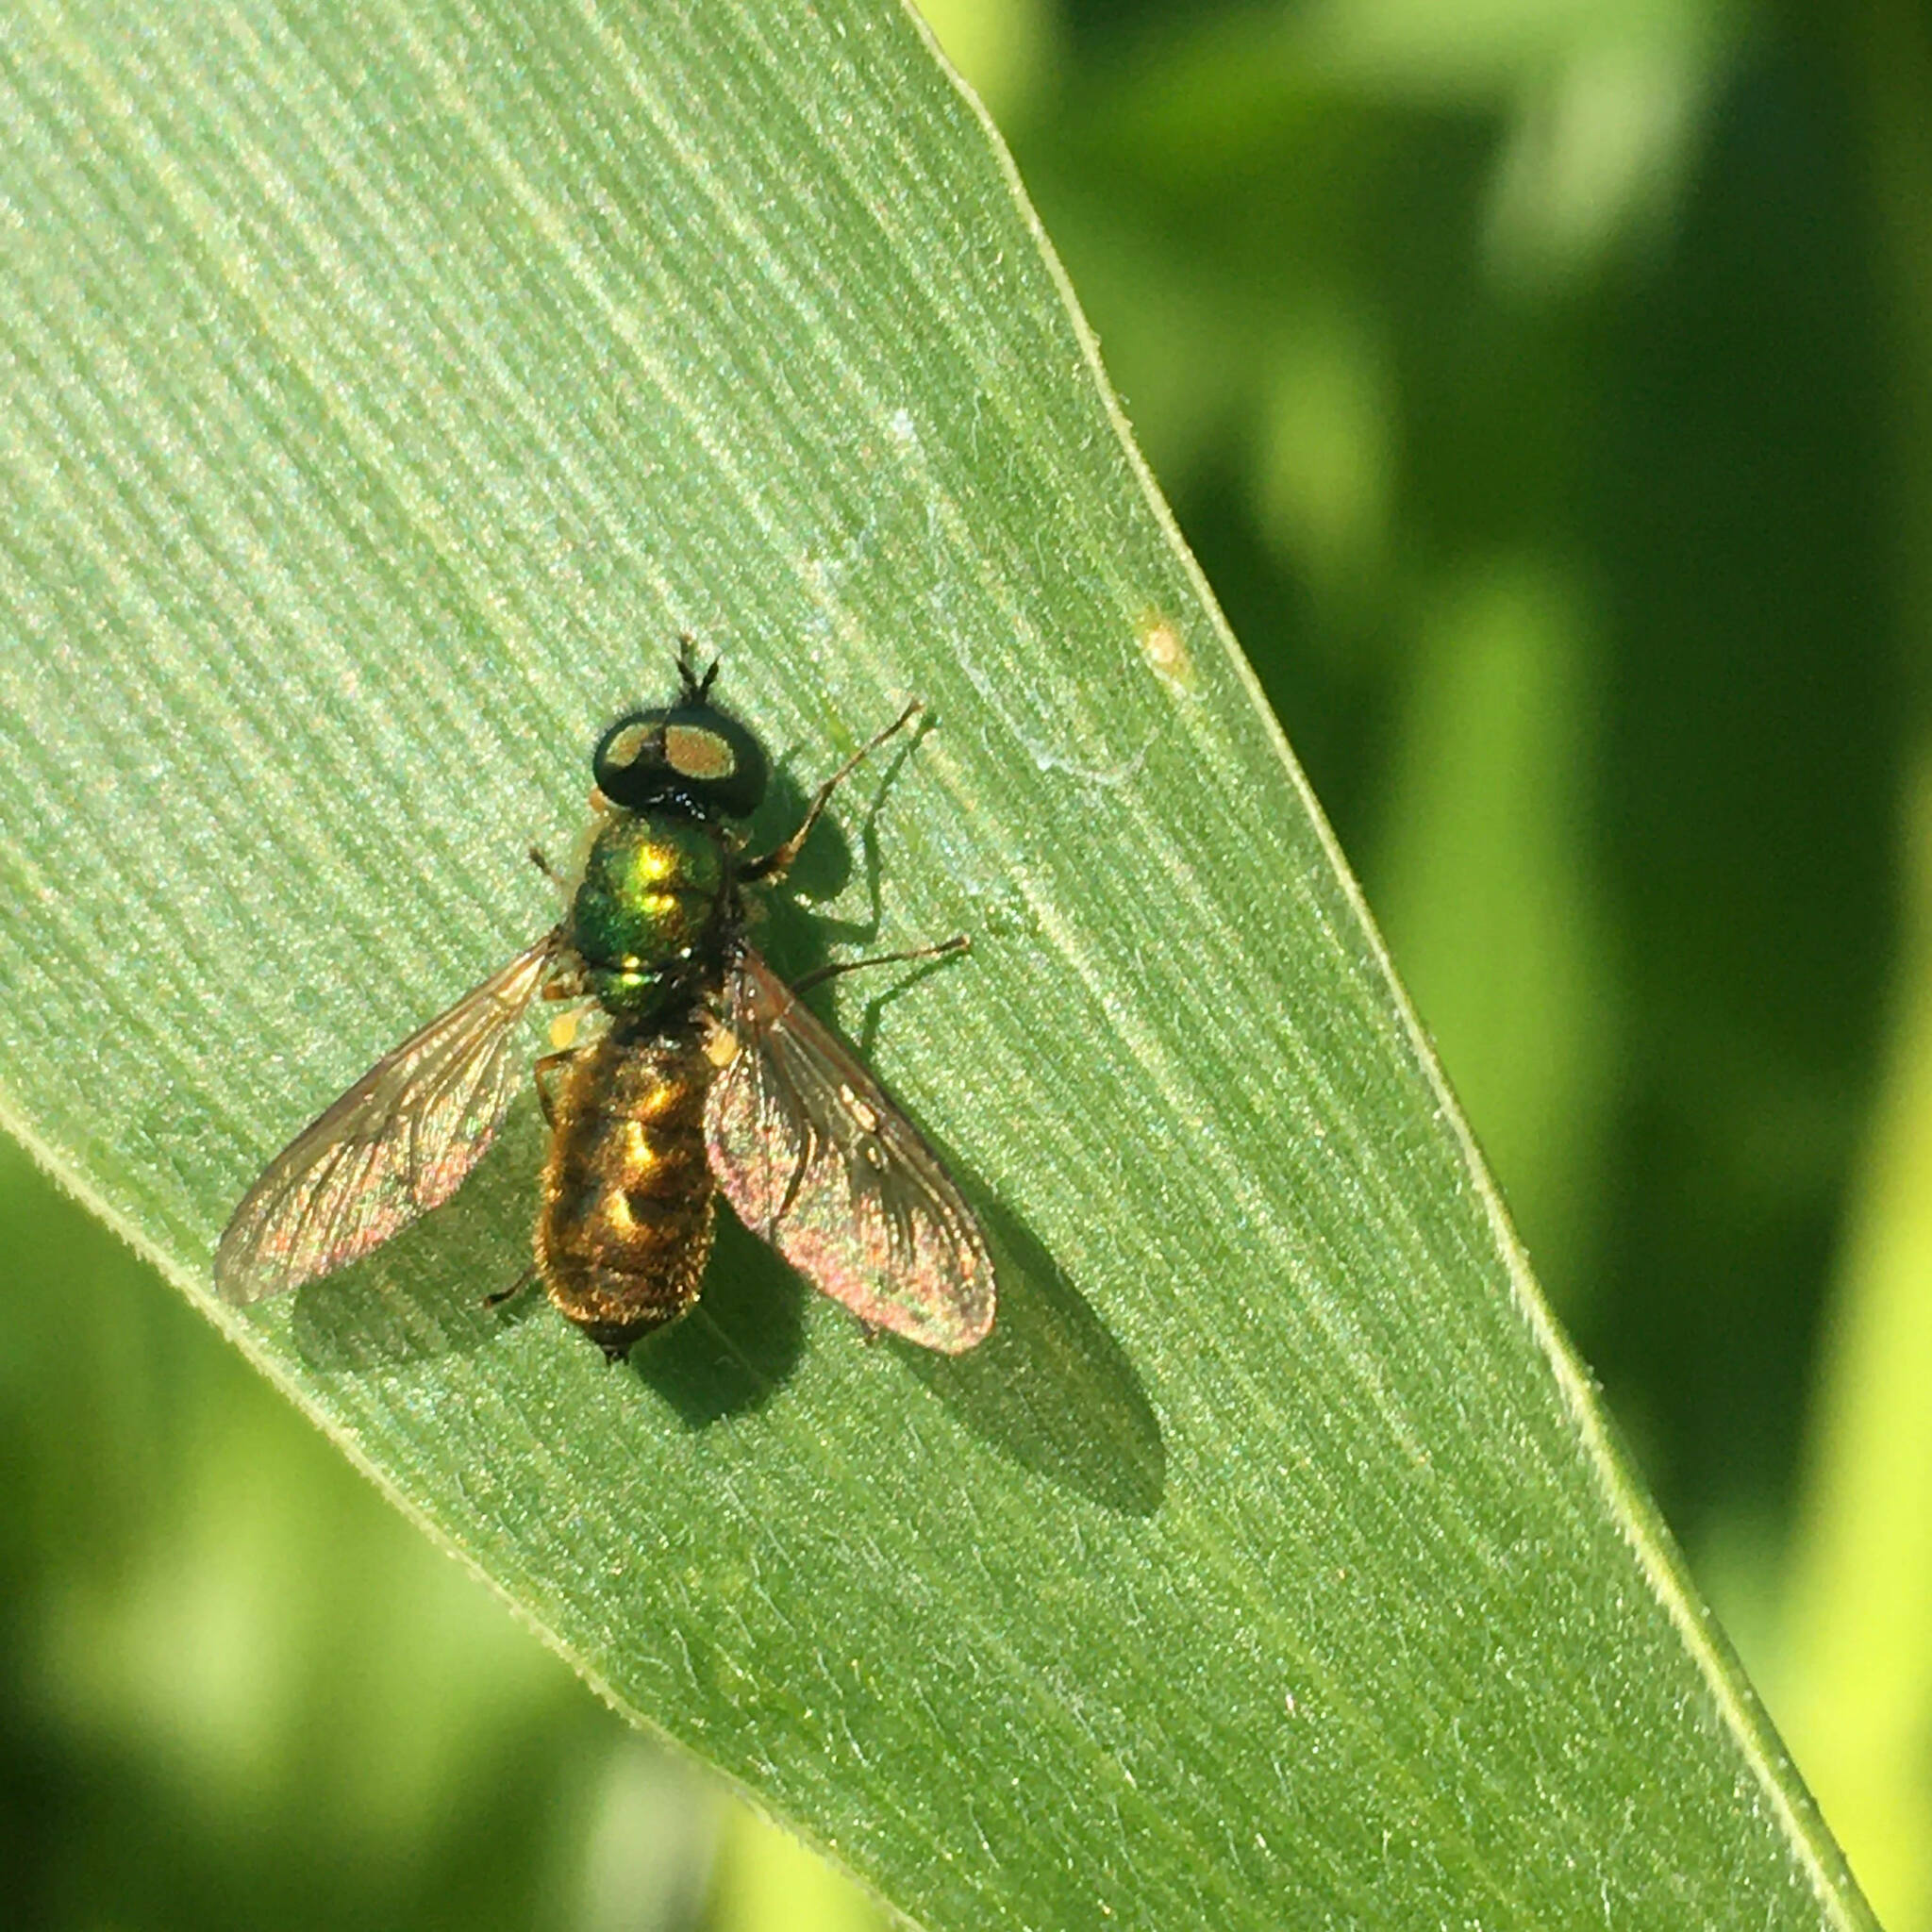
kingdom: Animalia
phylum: Arthropoda
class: Insecta
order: Diptera
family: Stratiomyidae
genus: Chloromyia
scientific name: Chloromyia formosa
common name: Soldier fly
